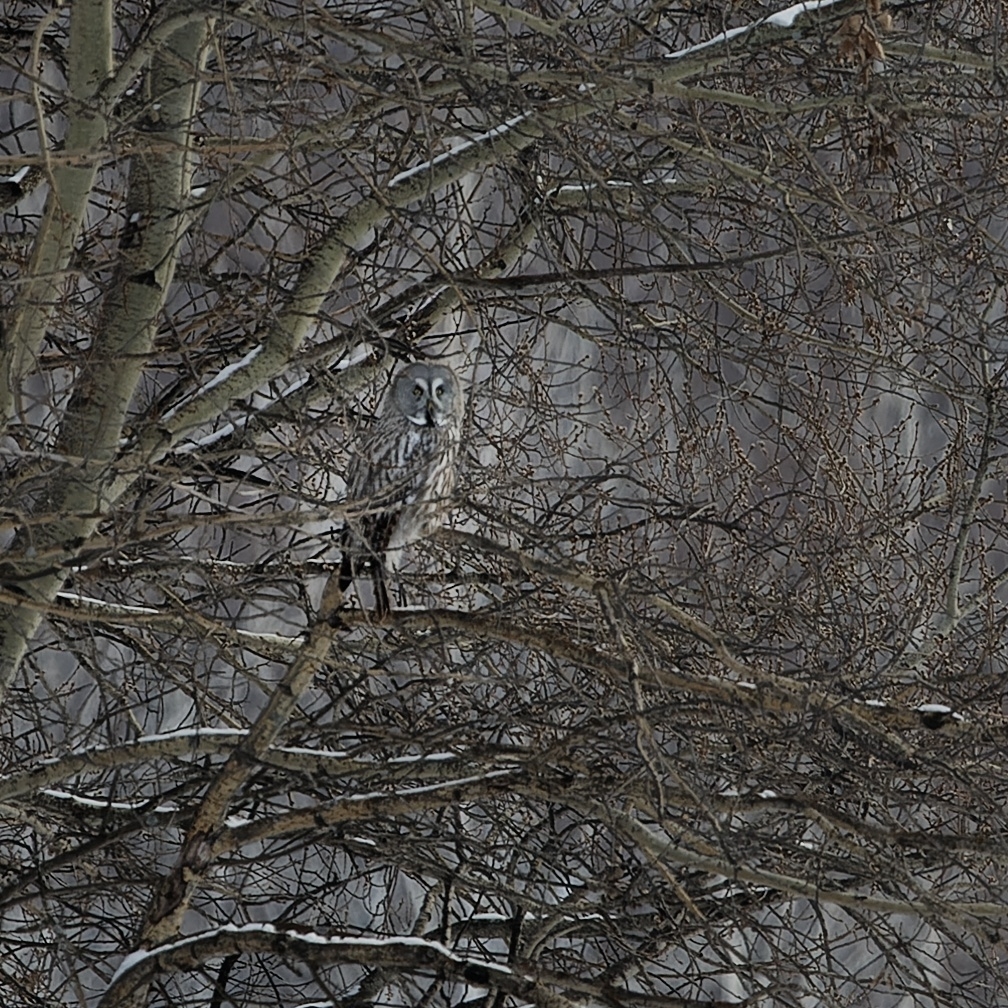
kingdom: Animalia
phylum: Chordata
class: Aves
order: Strigiformes
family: Strigidae
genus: Strix
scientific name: Strix nebulosa
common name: Great grey owl
